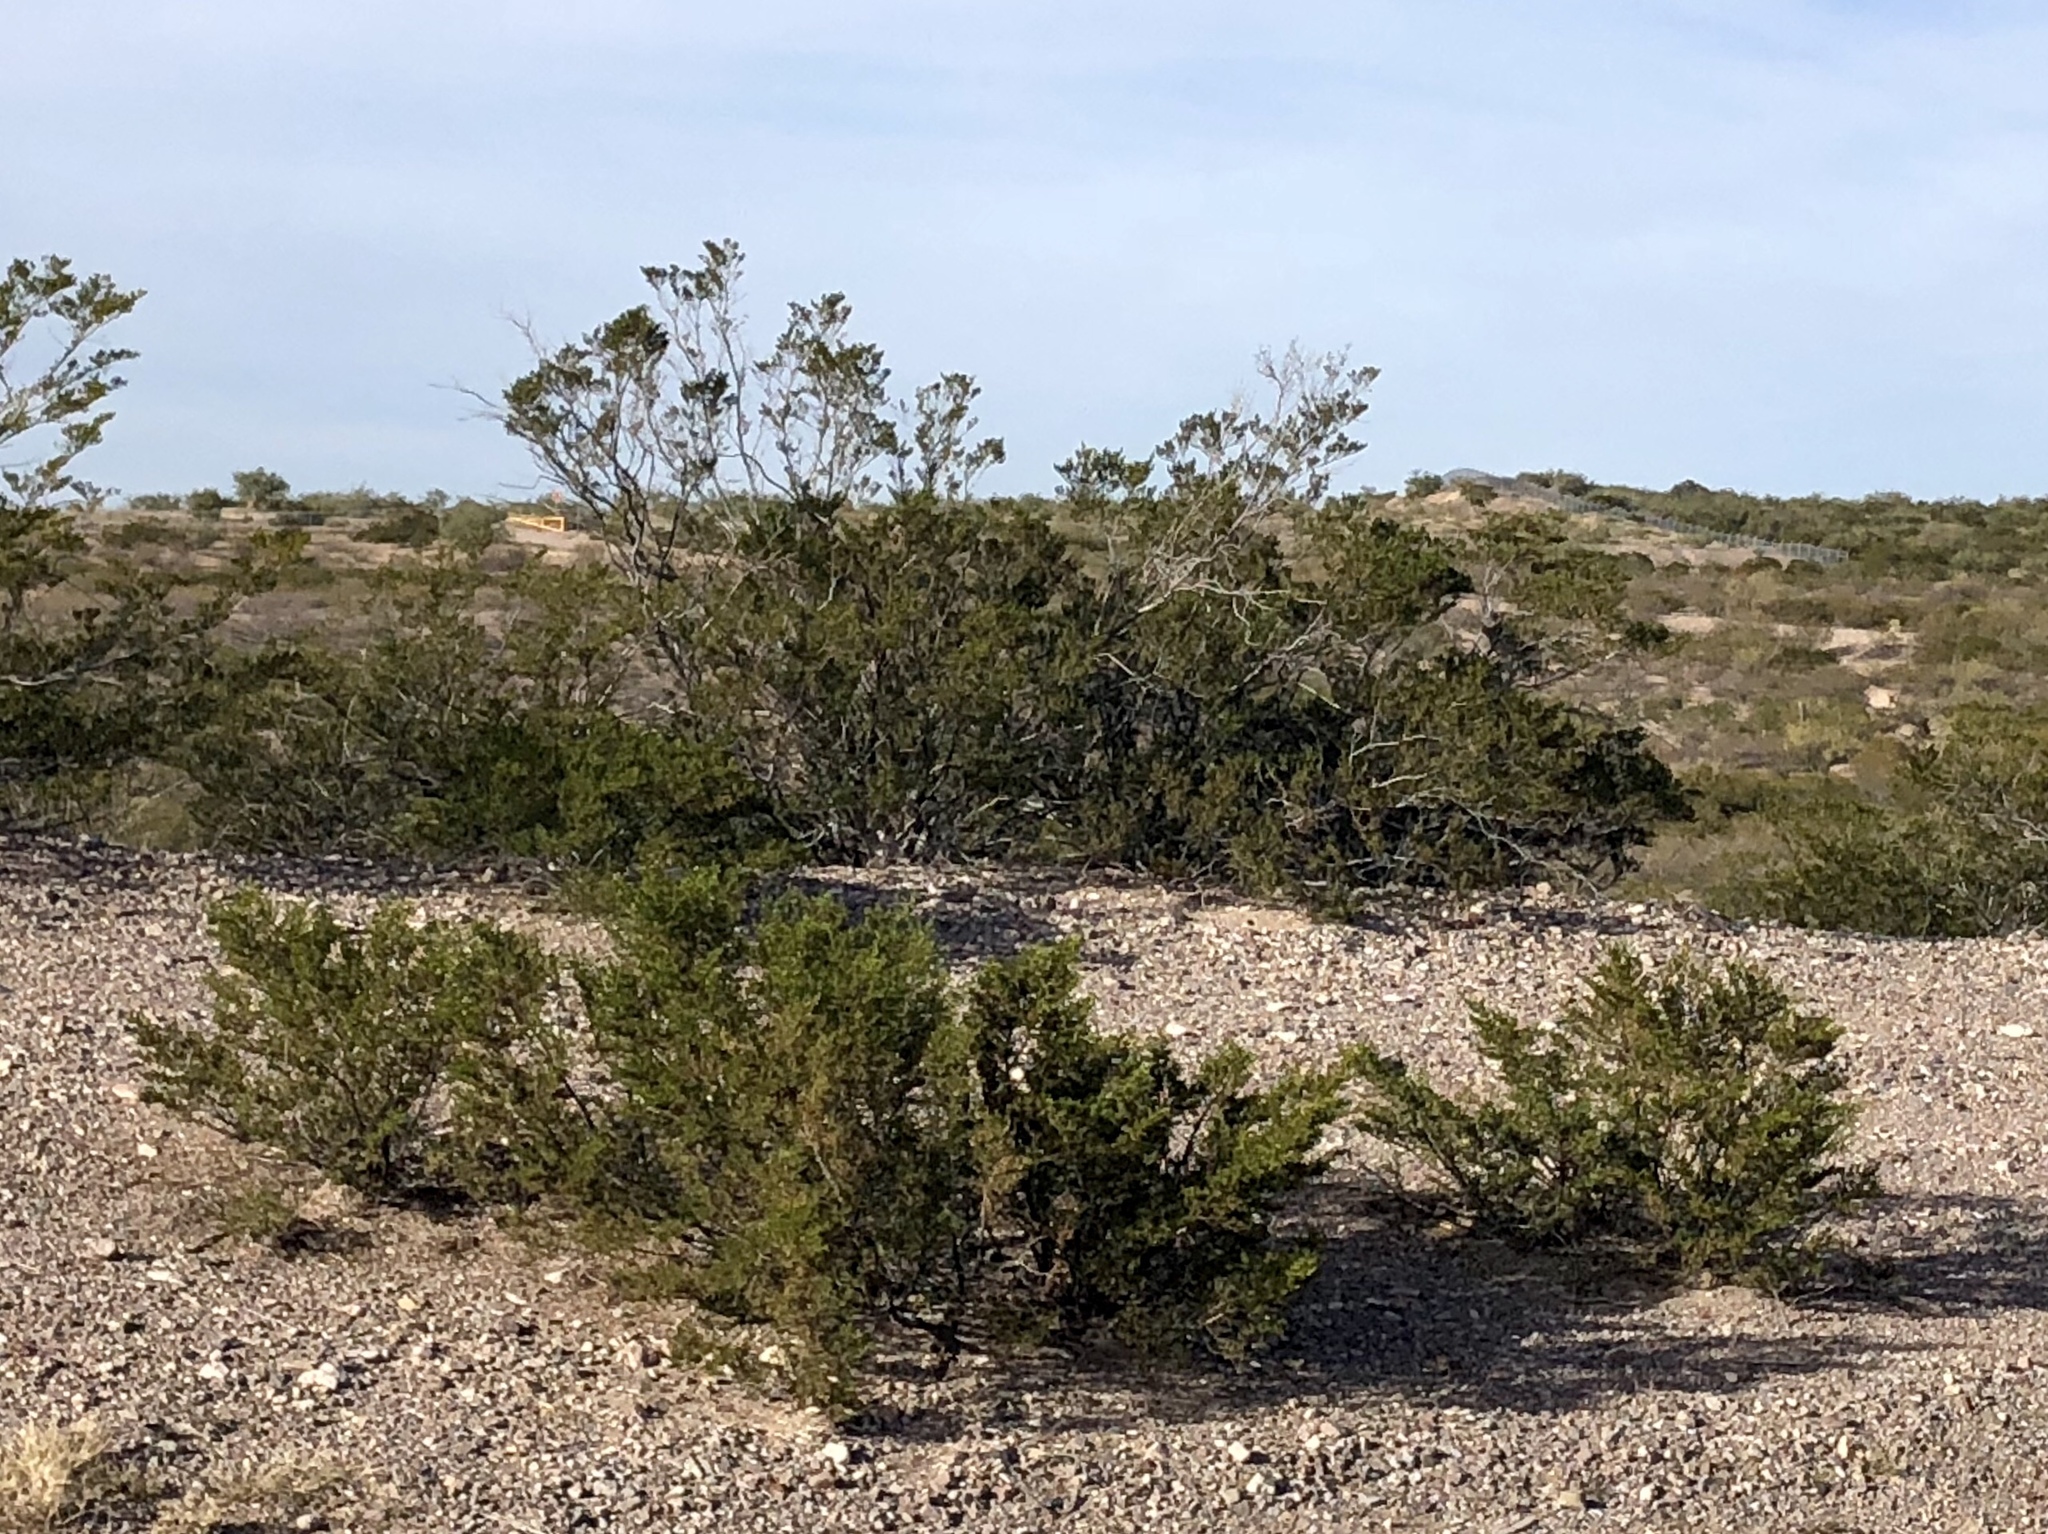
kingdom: Plantae
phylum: Tracheophyta
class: Magnoliopsida
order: Zygophyllales
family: Zygophyllaceae
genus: Larrea
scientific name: Larrea tridentata
